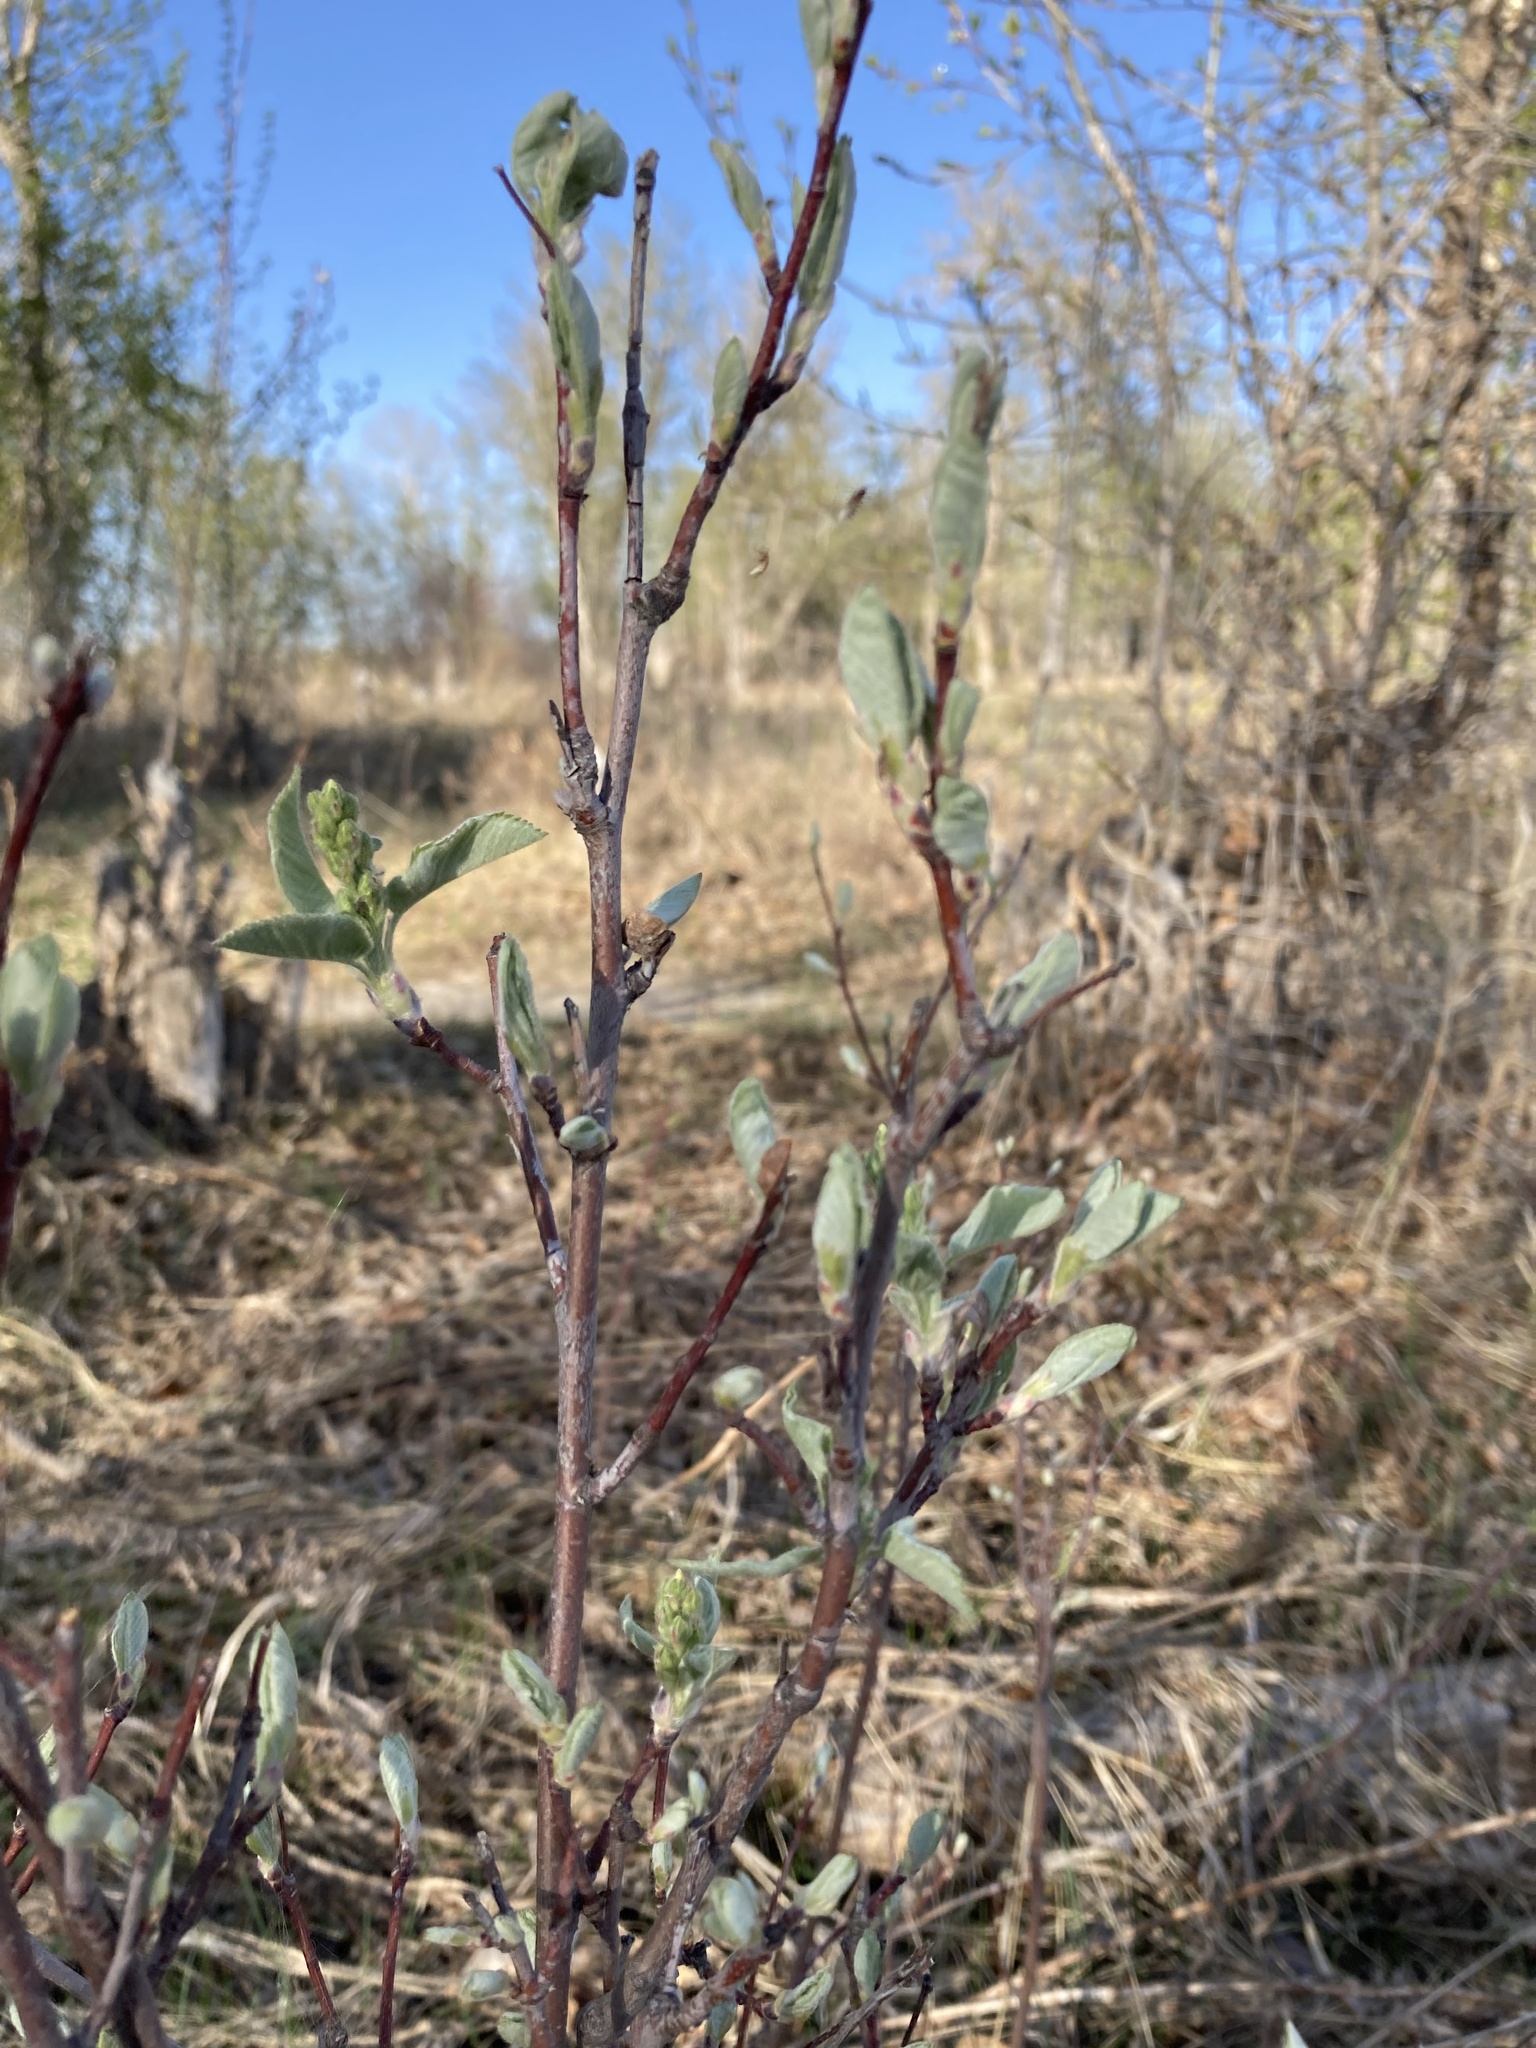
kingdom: Plantae
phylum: Tracheophyta
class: Magnoliopsida
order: Rosales
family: Rosaceae
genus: Amelanchier
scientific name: Amelanchier alnifolia
